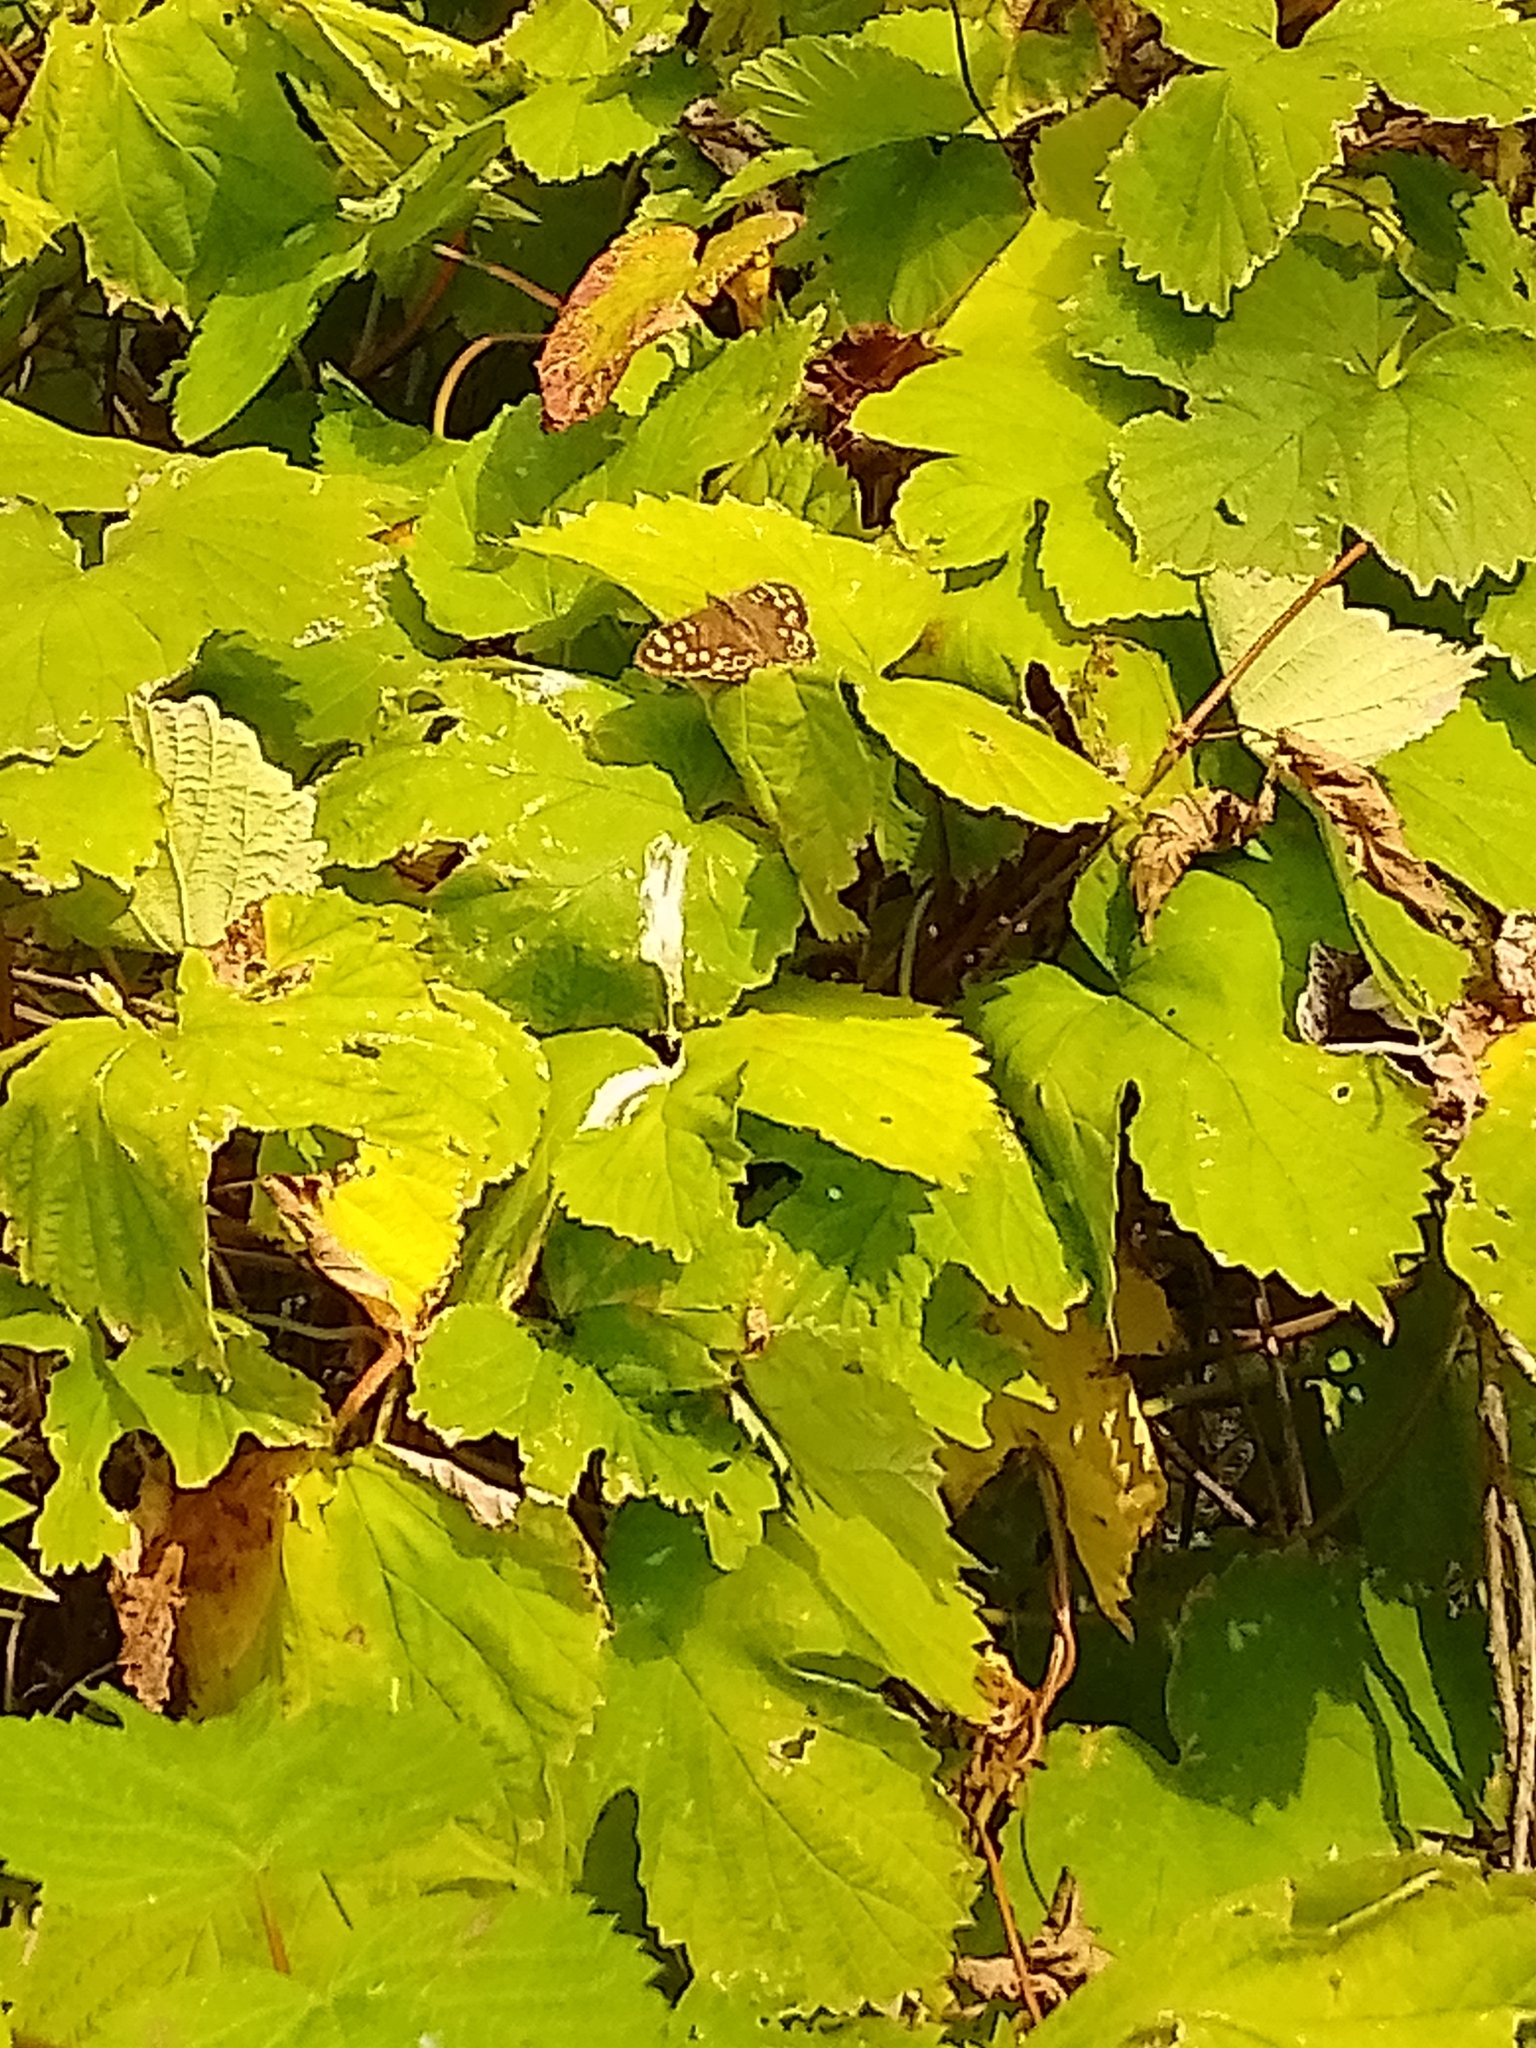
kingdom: Animalia
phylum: Arthropoda
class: Insecta
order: Lepidoptera
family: Nymphalidae
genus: Pararge
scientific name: Pararge aegeria
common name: Speckled wood
